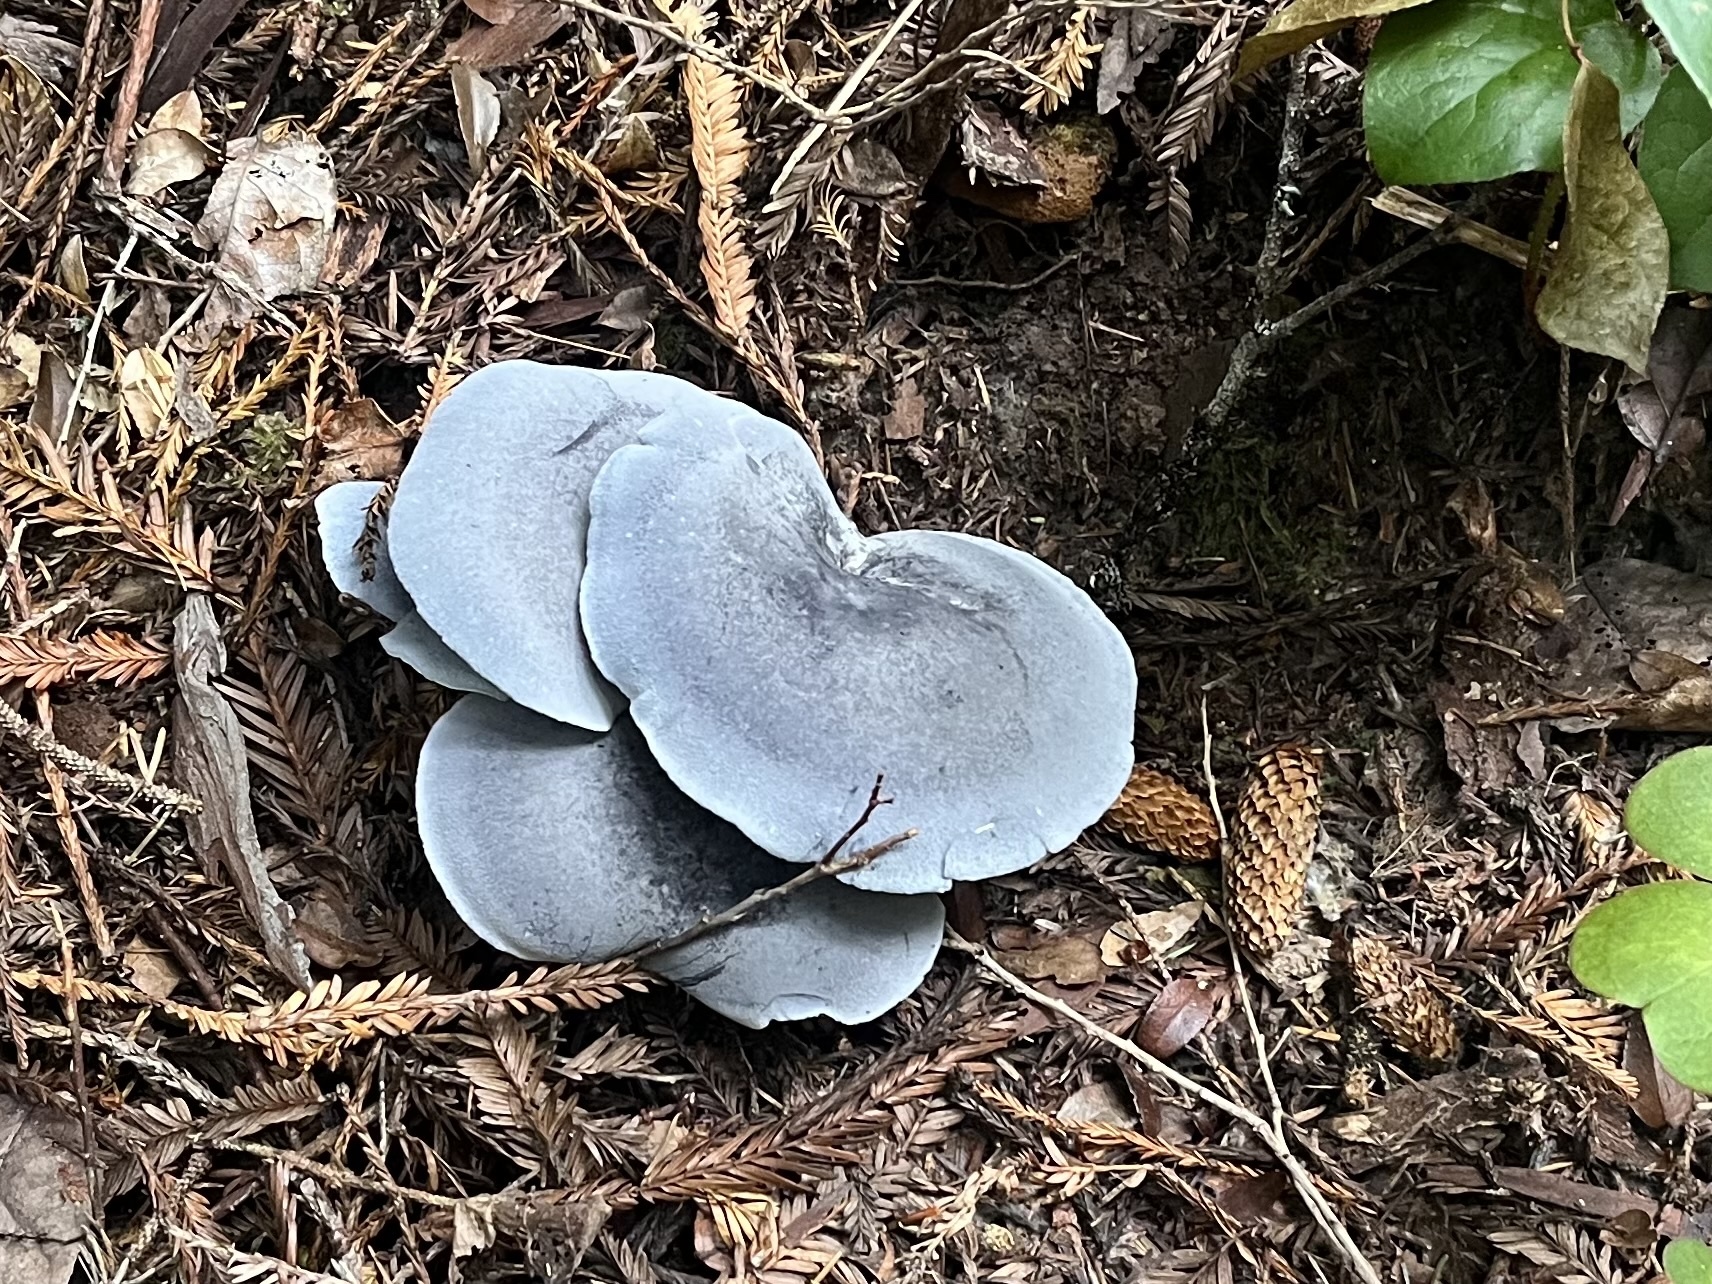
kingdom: Fungi
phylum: Basidiomycota
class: Agaricomycetes
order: Russulales
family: Albatrellaceae
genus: Albatrellopsis
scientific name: Albatrellopsis flettii
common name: Blue polypore
